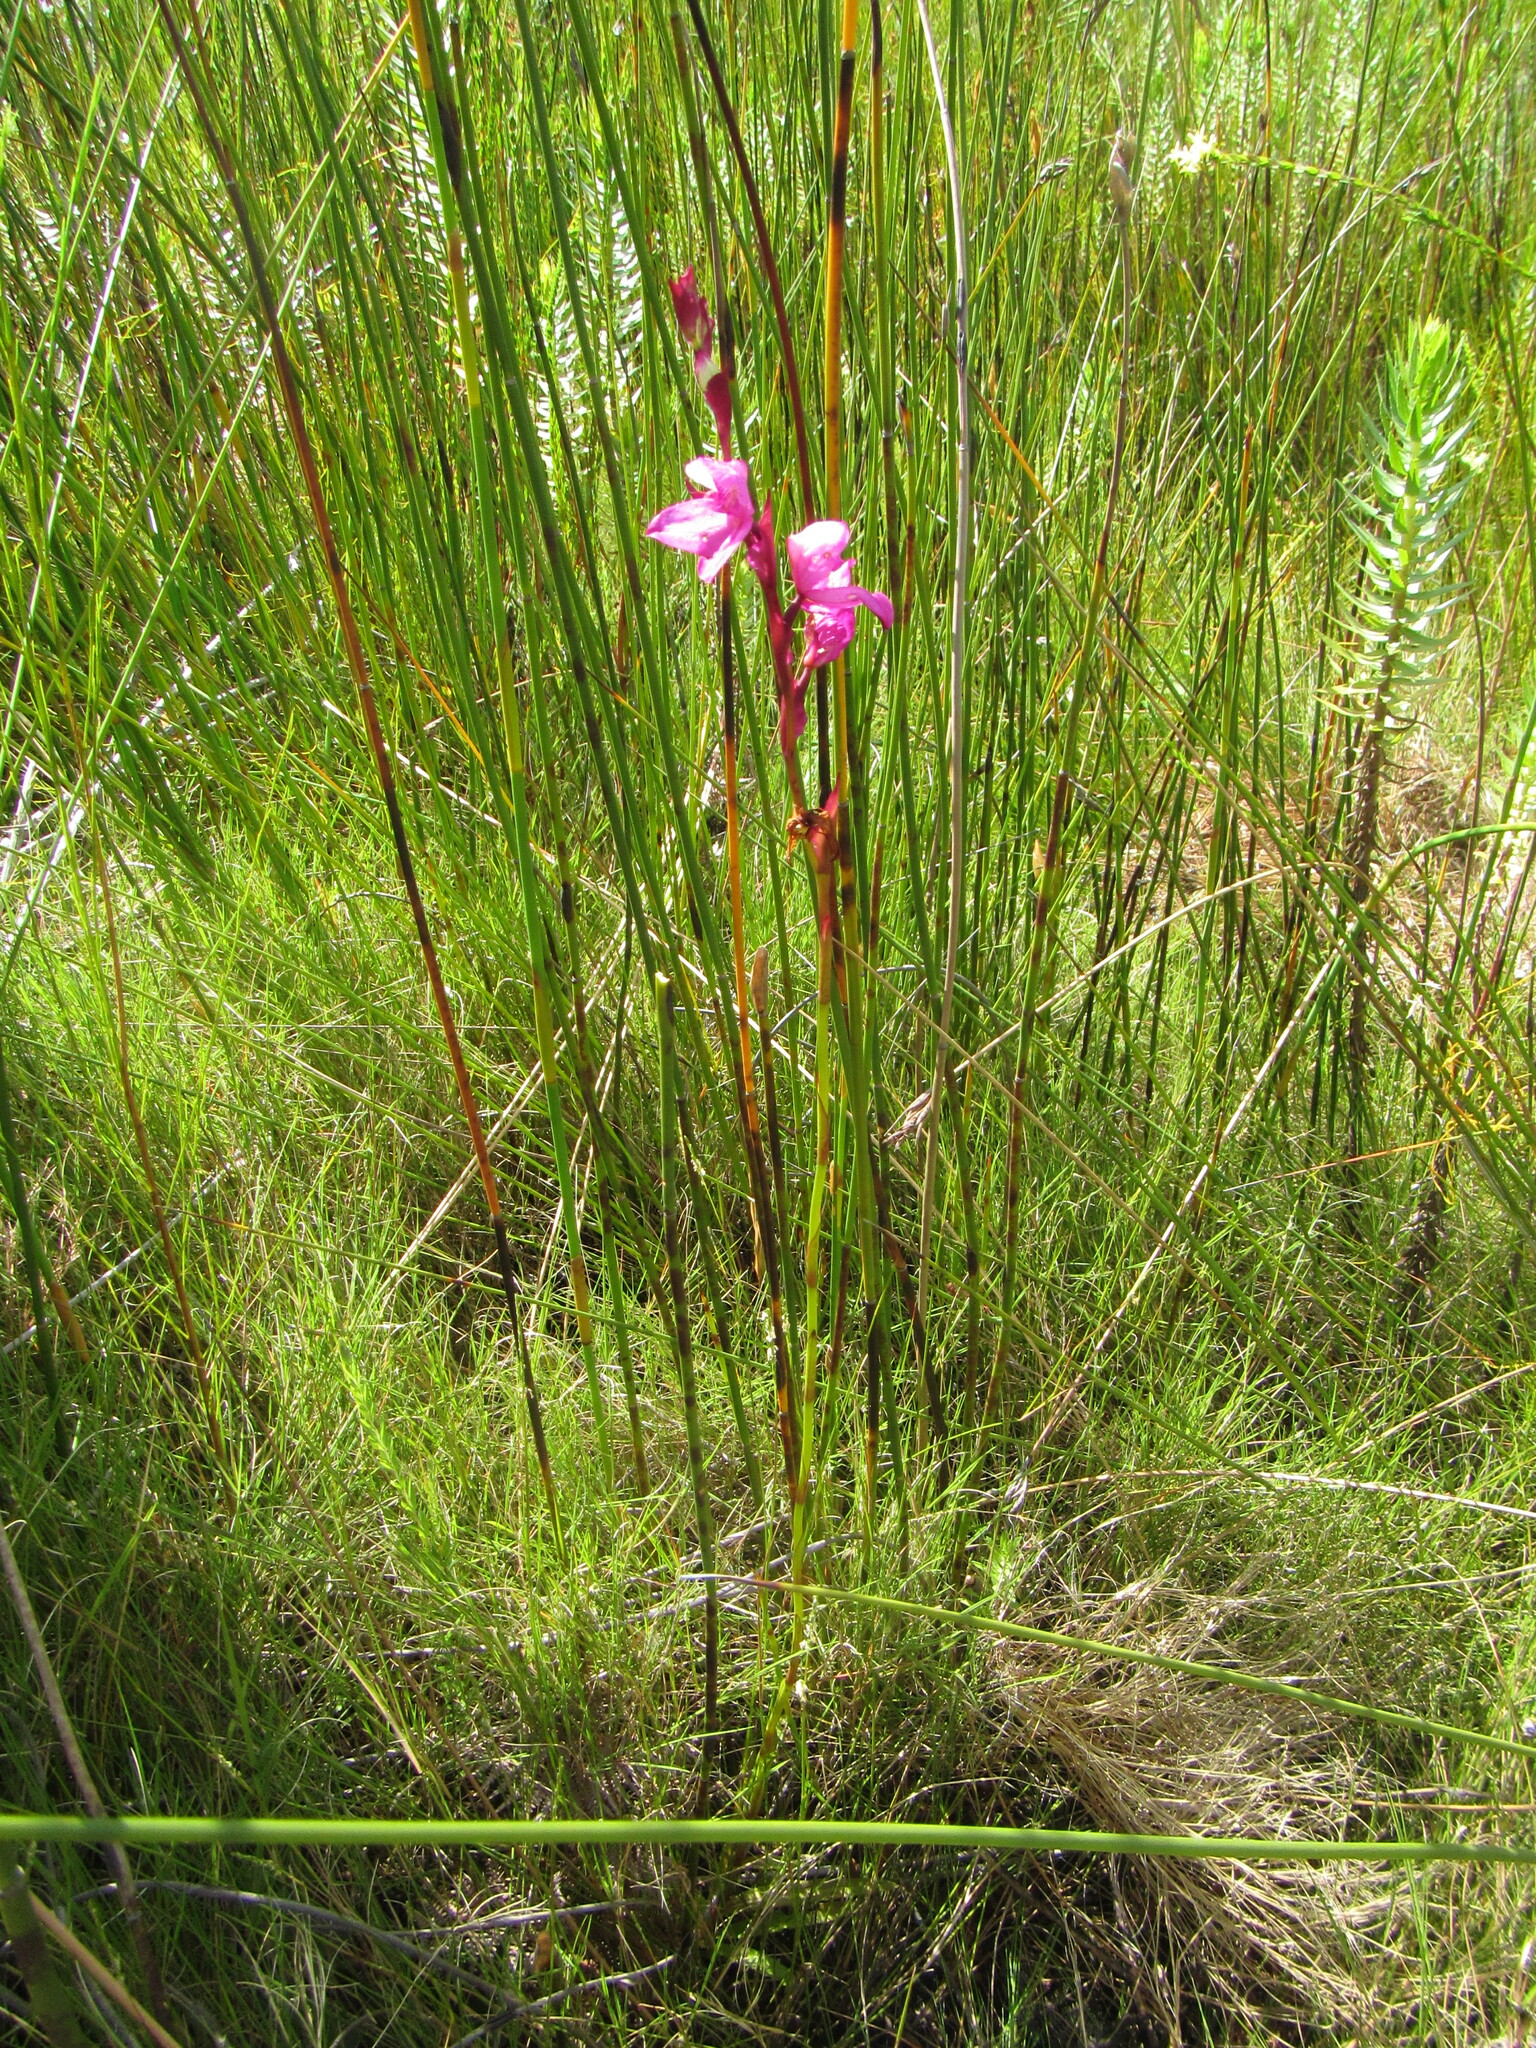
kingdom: Plantae
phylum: Tracheophyta
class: Liliopsida
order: Asparagales
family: Orchidaceae
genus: Disa
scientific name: Disa racemosa
